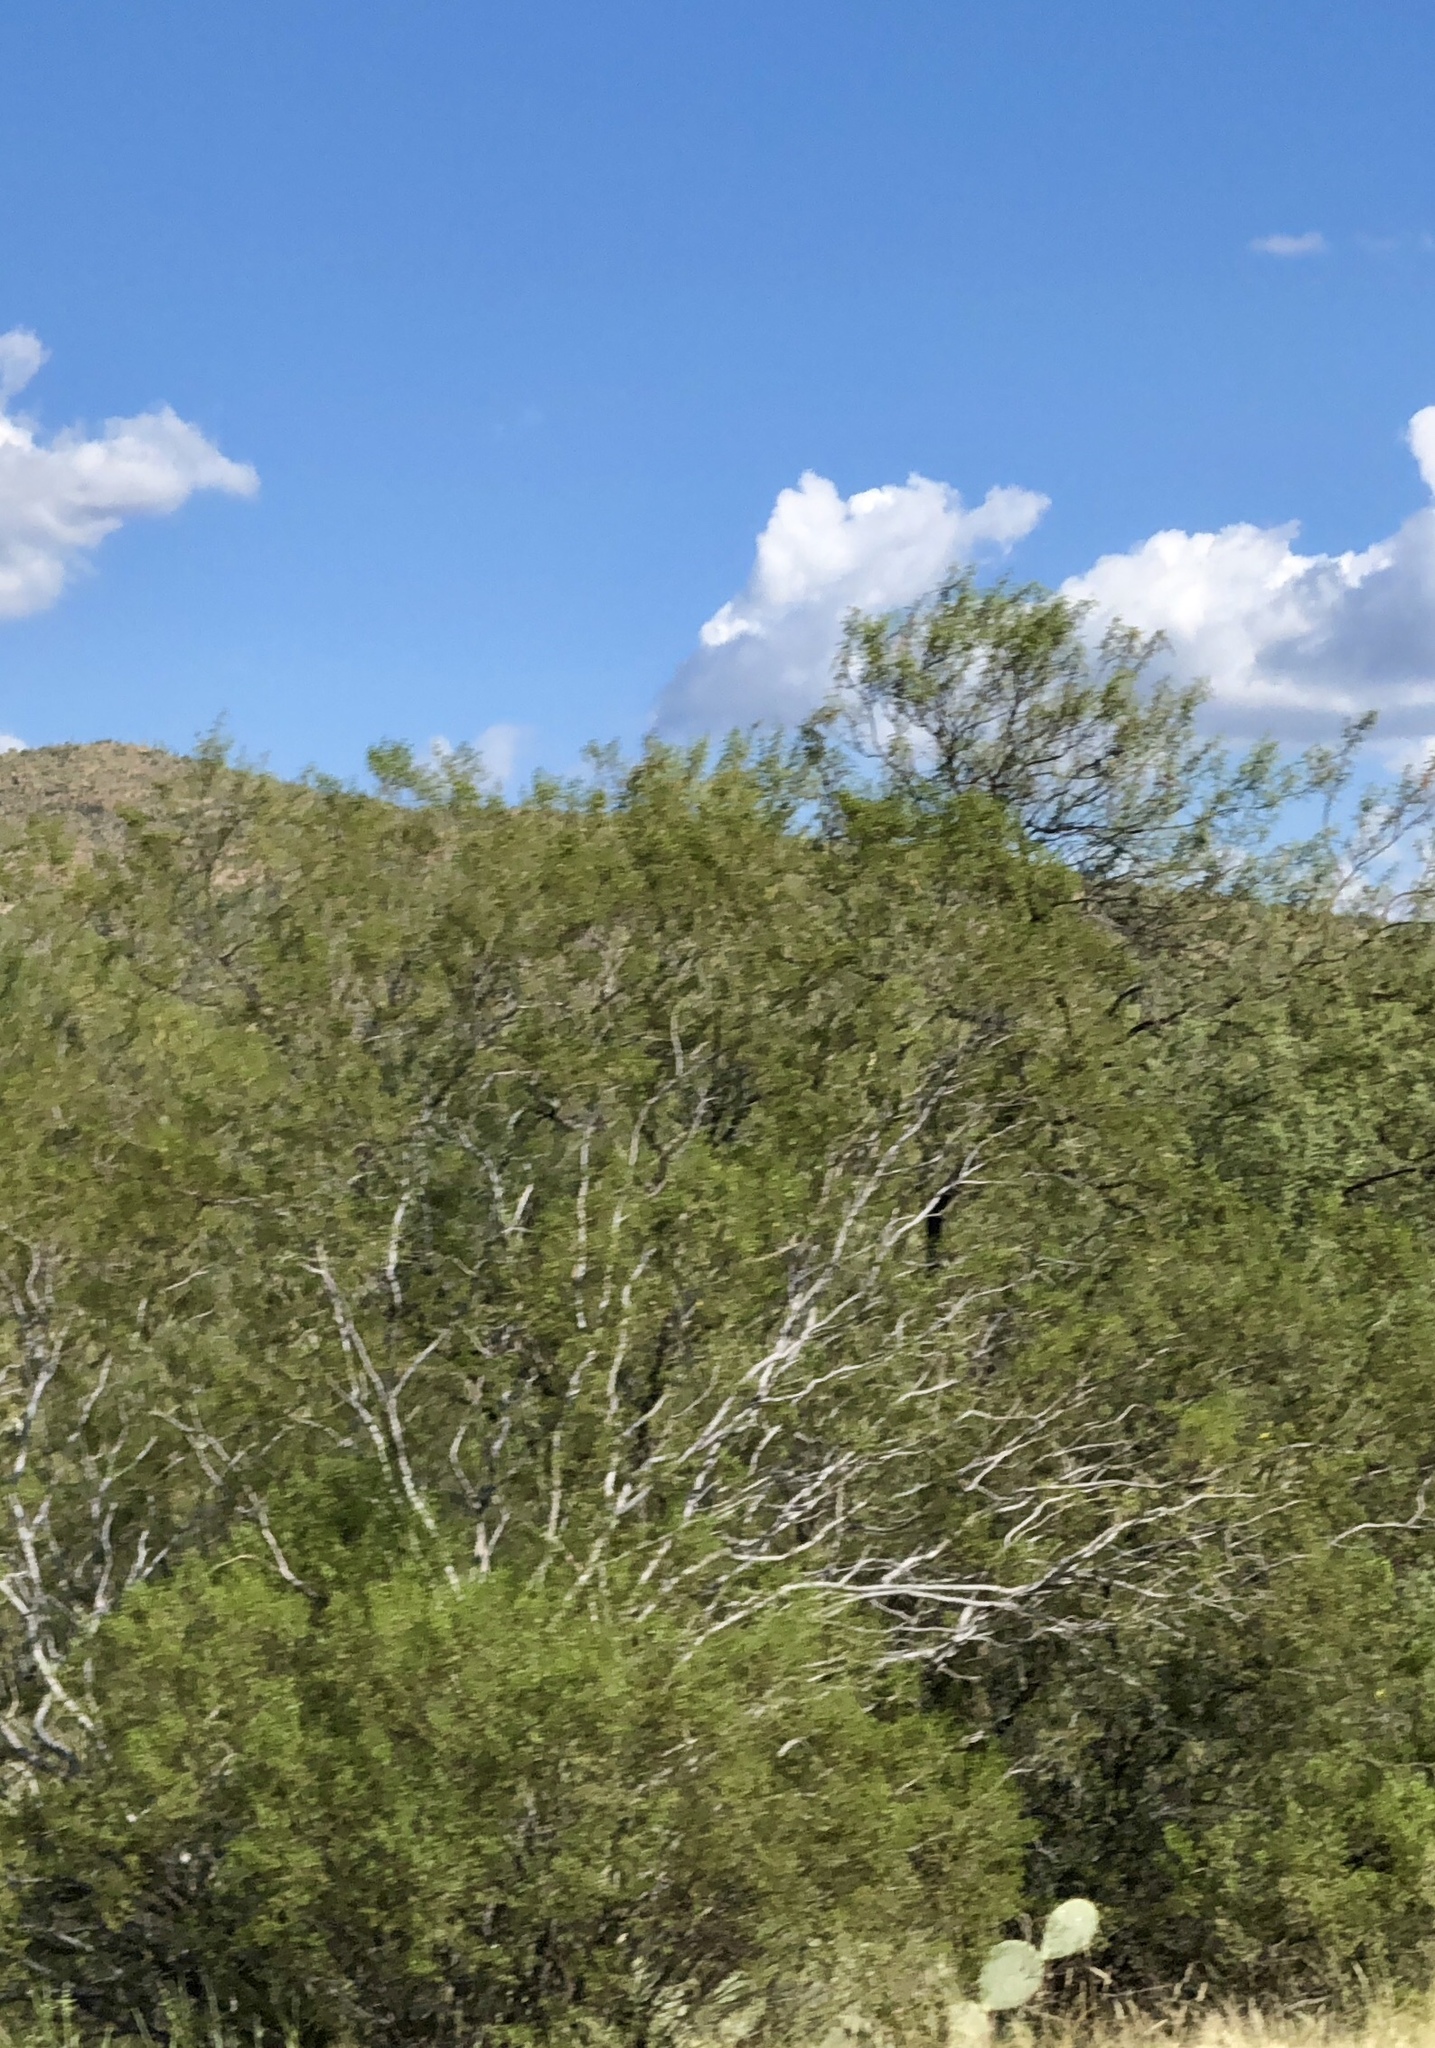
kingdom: Plantae
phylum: Tracheophyta
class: Magnoliopsida
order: Zygophyllales
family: Zygophyllaceae
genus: Larrea
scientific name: Larrea tridentata
